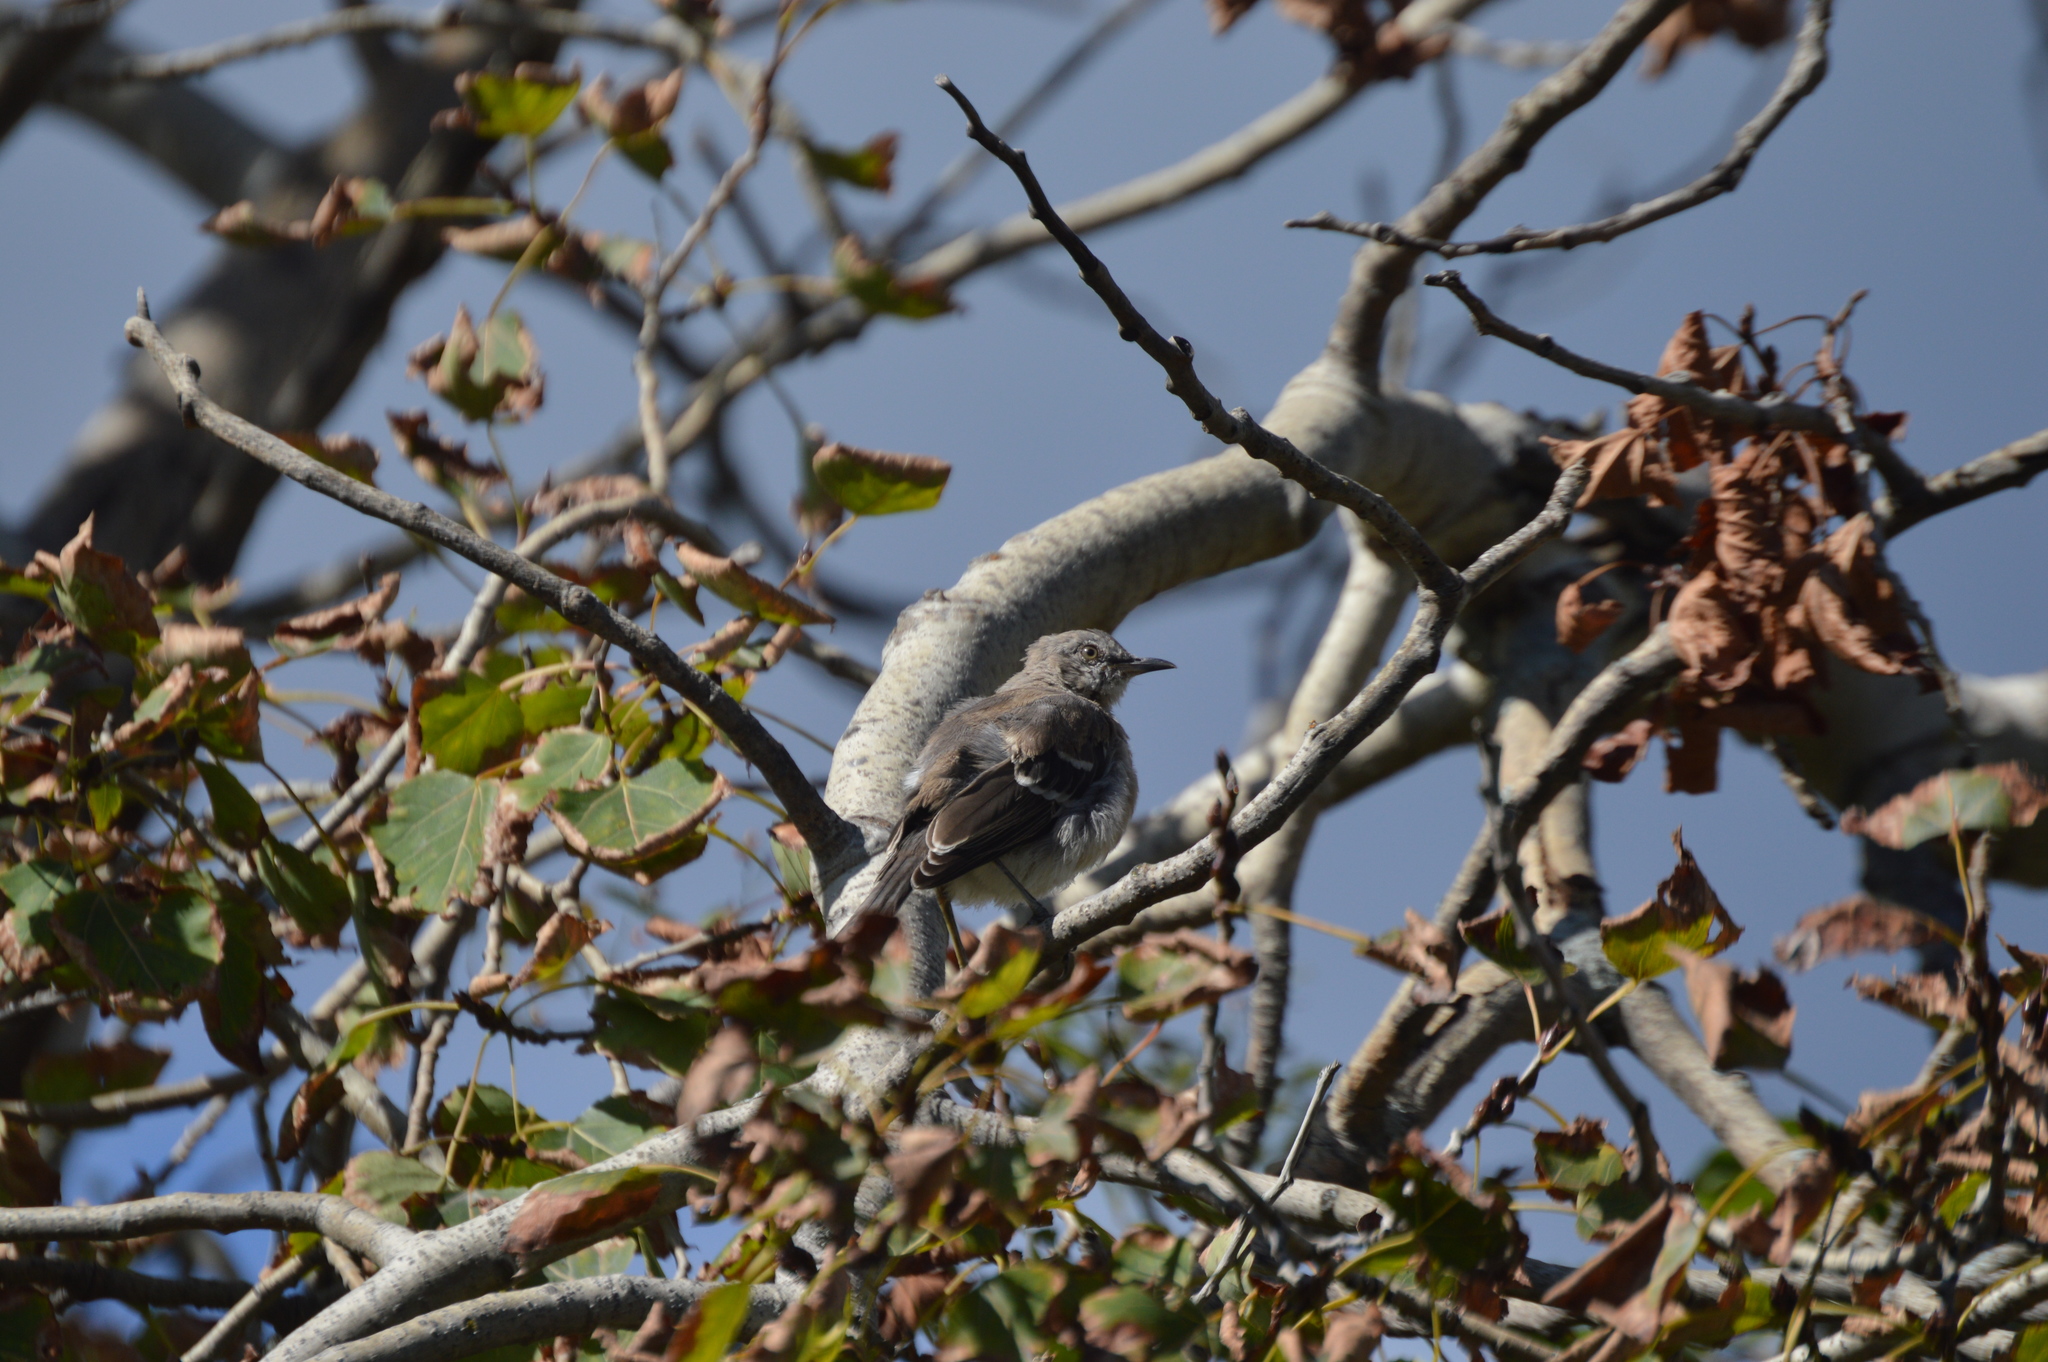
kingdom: Animalia
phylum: Chordata
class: Aves
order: Passeriformes
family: Mimidae
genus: Mimus
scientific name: Mimus polyglottos
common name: Northern mockingbird
